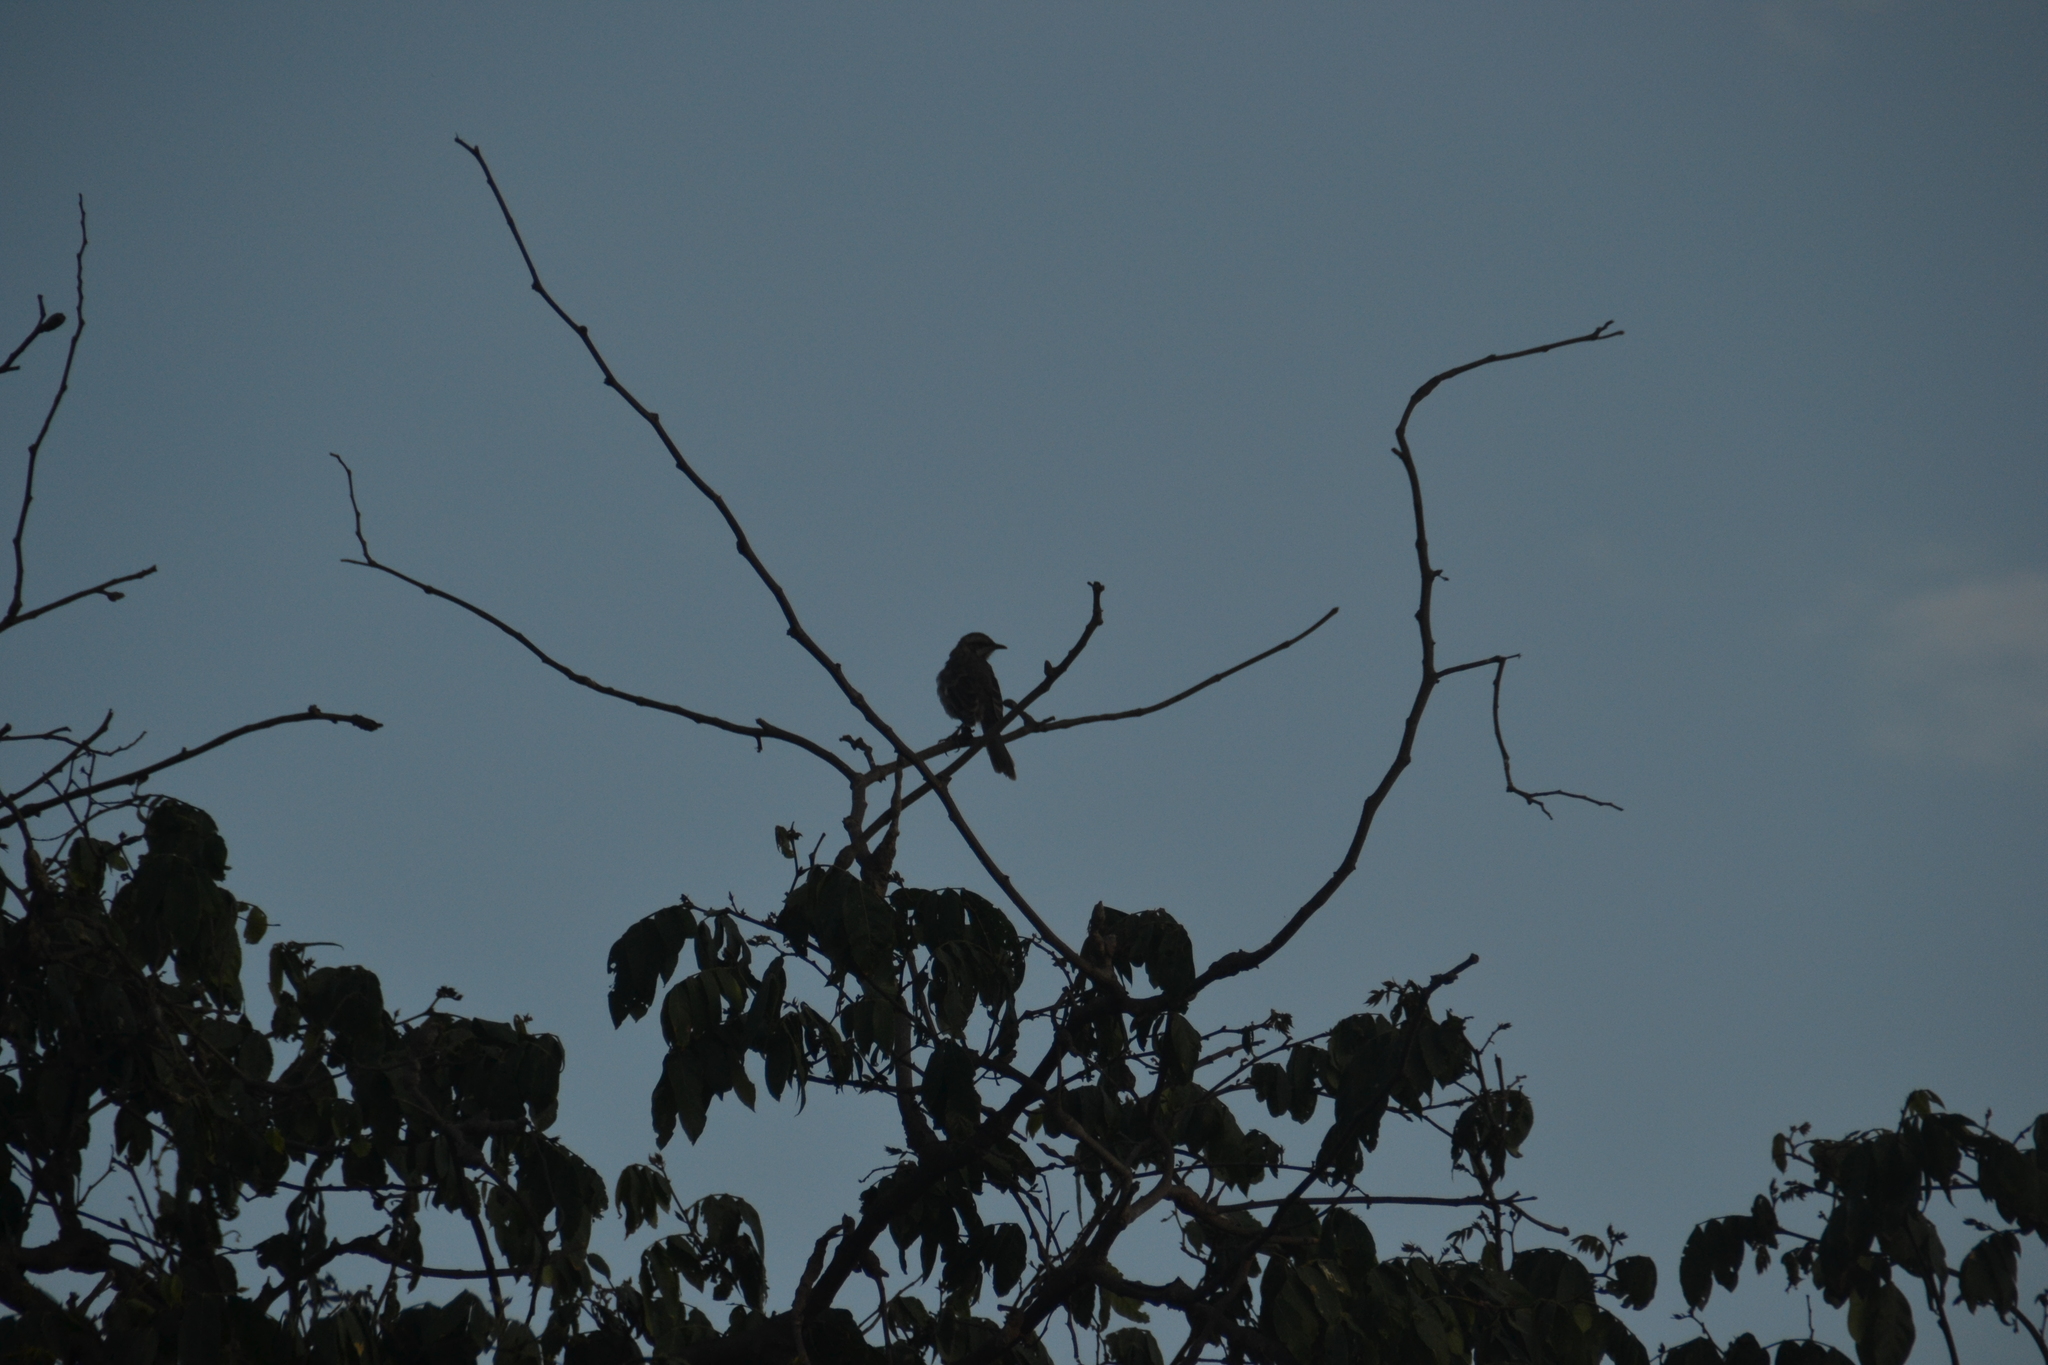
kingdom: Animalia
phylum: Chordata
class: Aves
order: Passeriformes
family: Mimidae
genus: Mimus
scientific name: Mimus longicaudatus
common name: Long-tailed mockingbird
